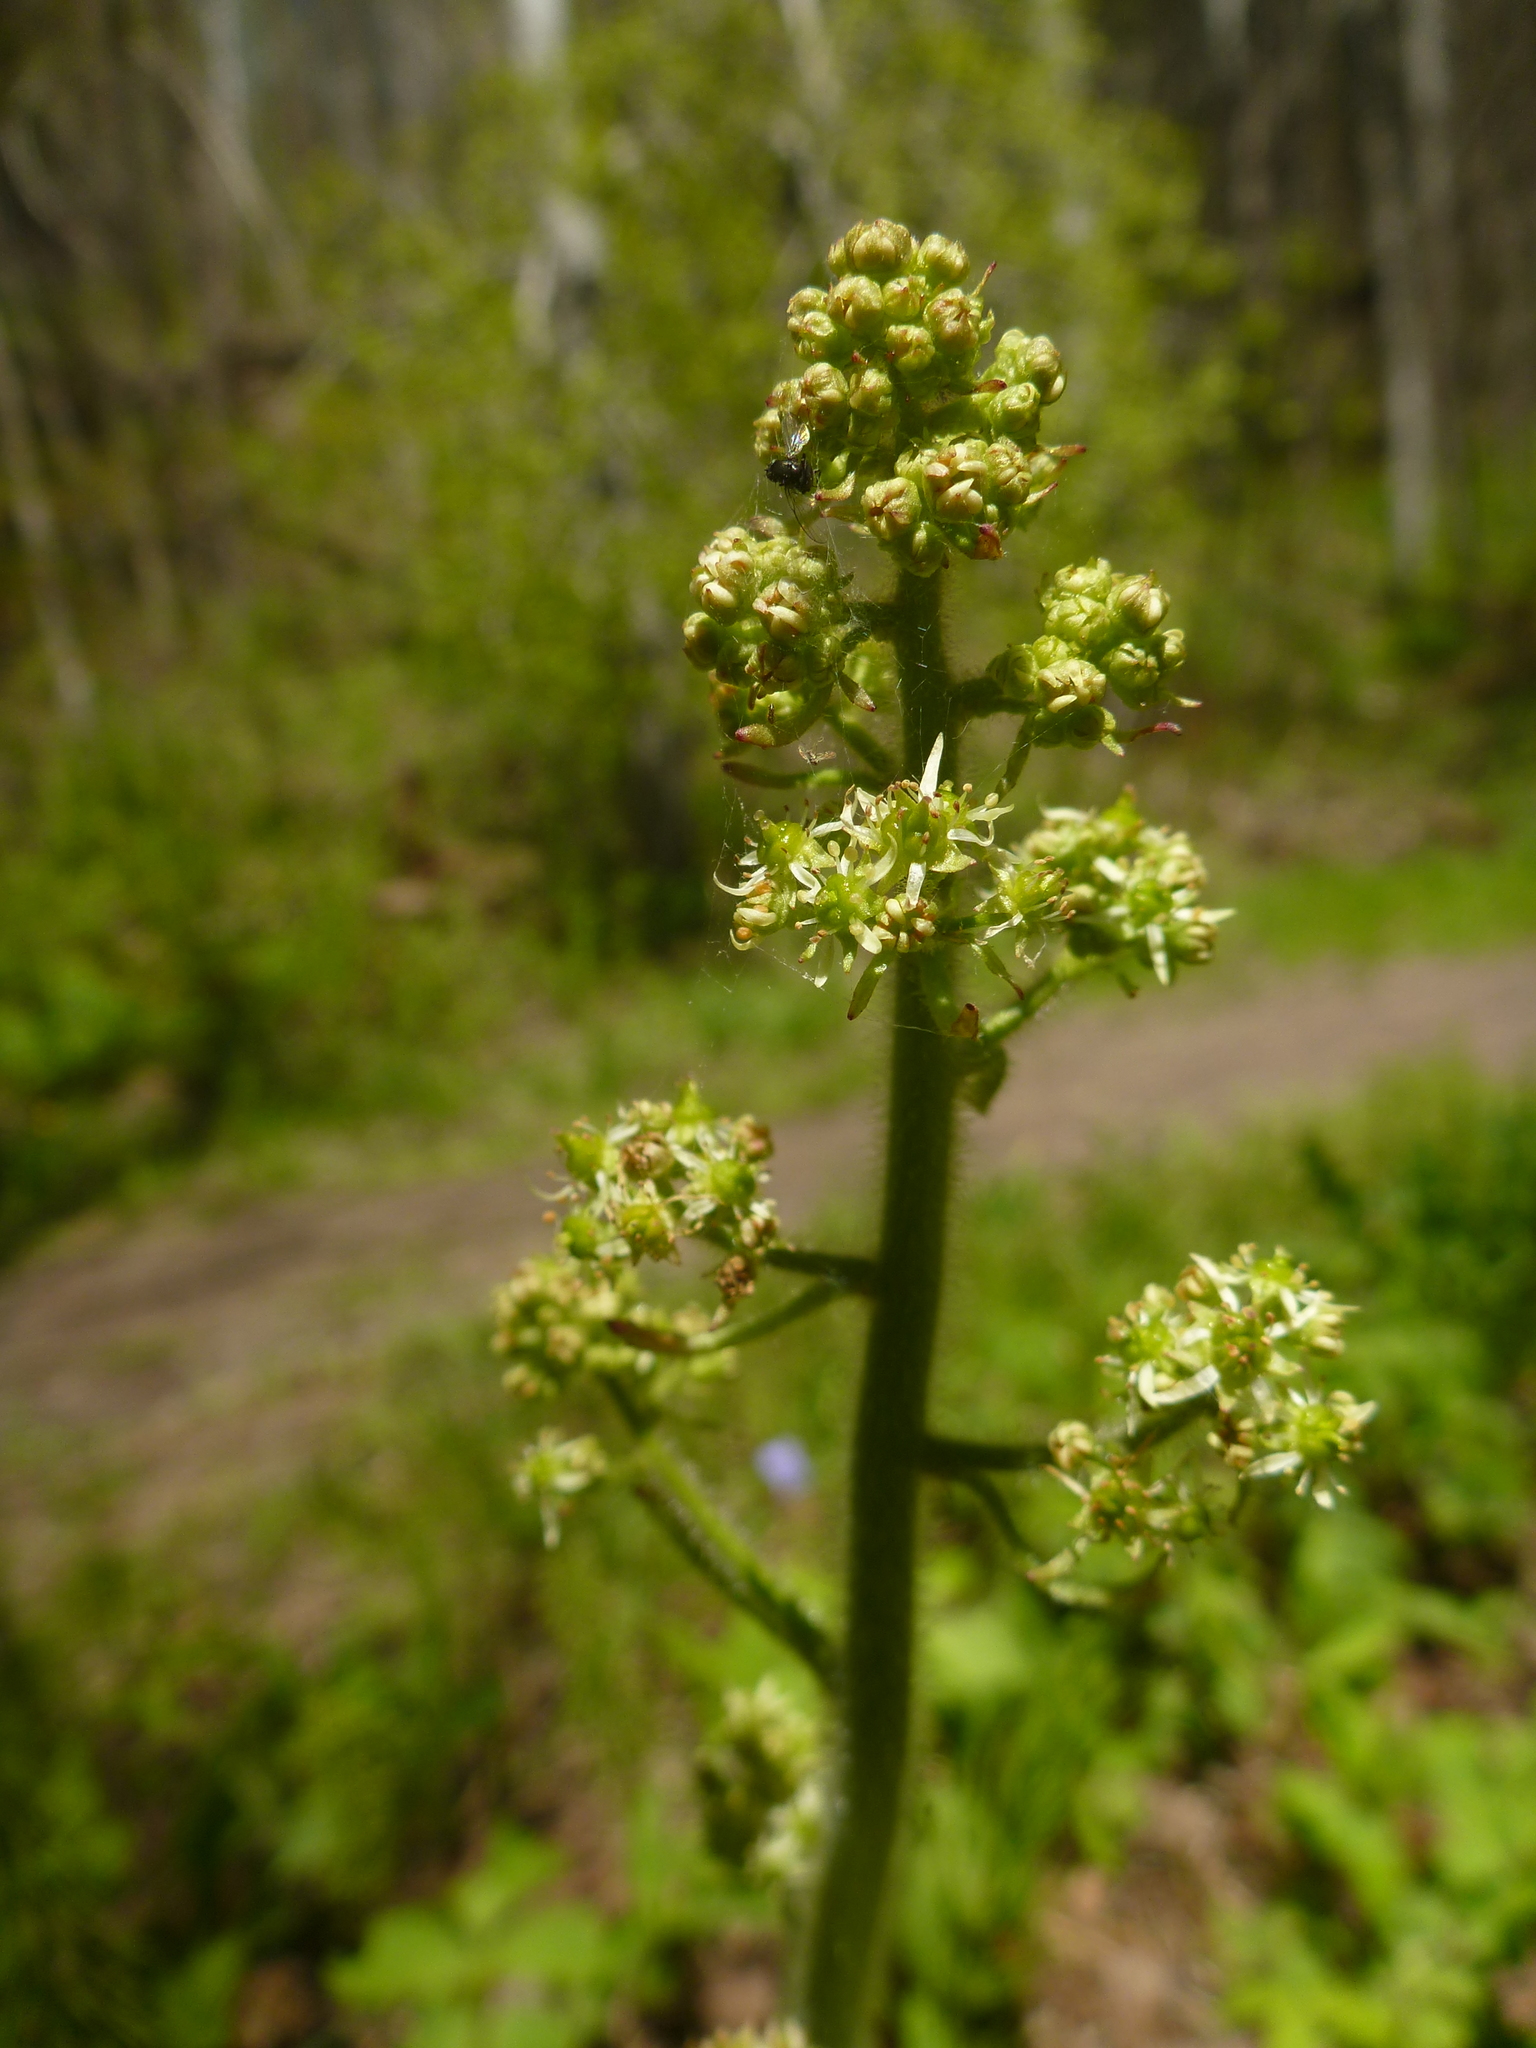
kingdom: Plantae
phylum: Tracheophyta
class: Magnoliopsida
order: Saxifragales
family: Saxifragaceae
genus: Micranthes
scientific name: Micranthes pensylvanica
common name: Marsh saxifrage
